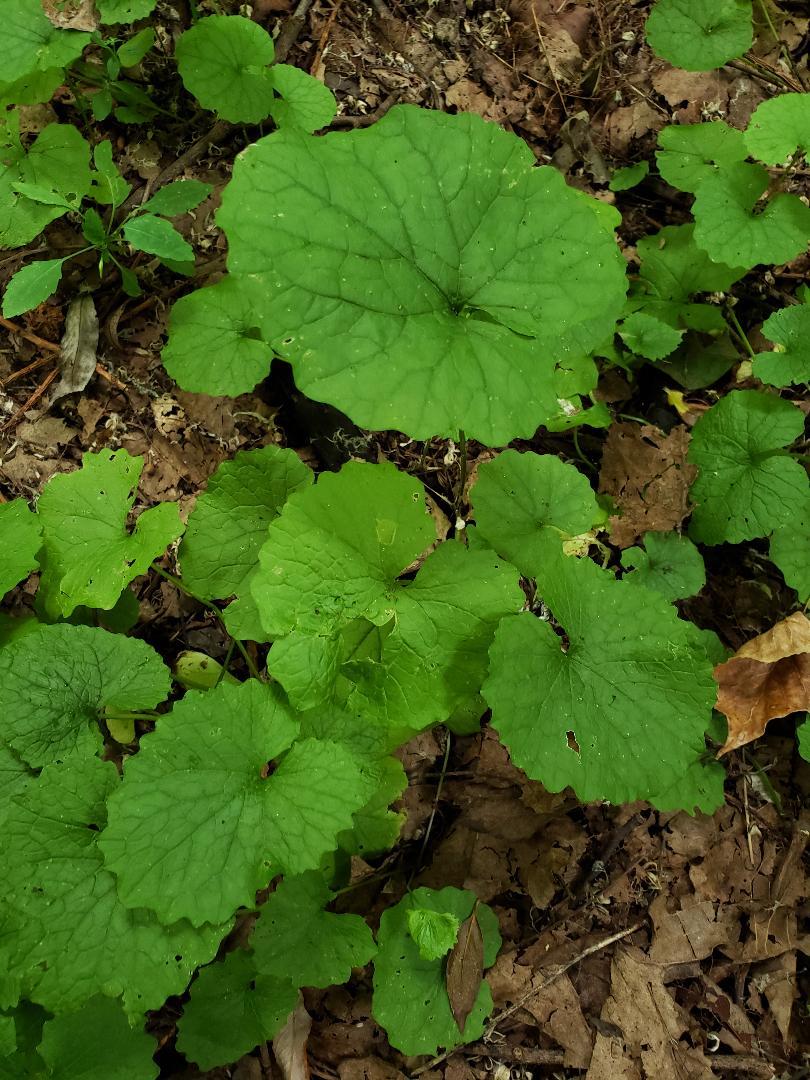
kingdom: Plantae
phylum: Tracheophyta
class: Magnoliopsida
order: Brassicales
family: Brassicaceae
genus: Alliaria
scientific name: Alliaria petiolata
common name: Garlic mustard
